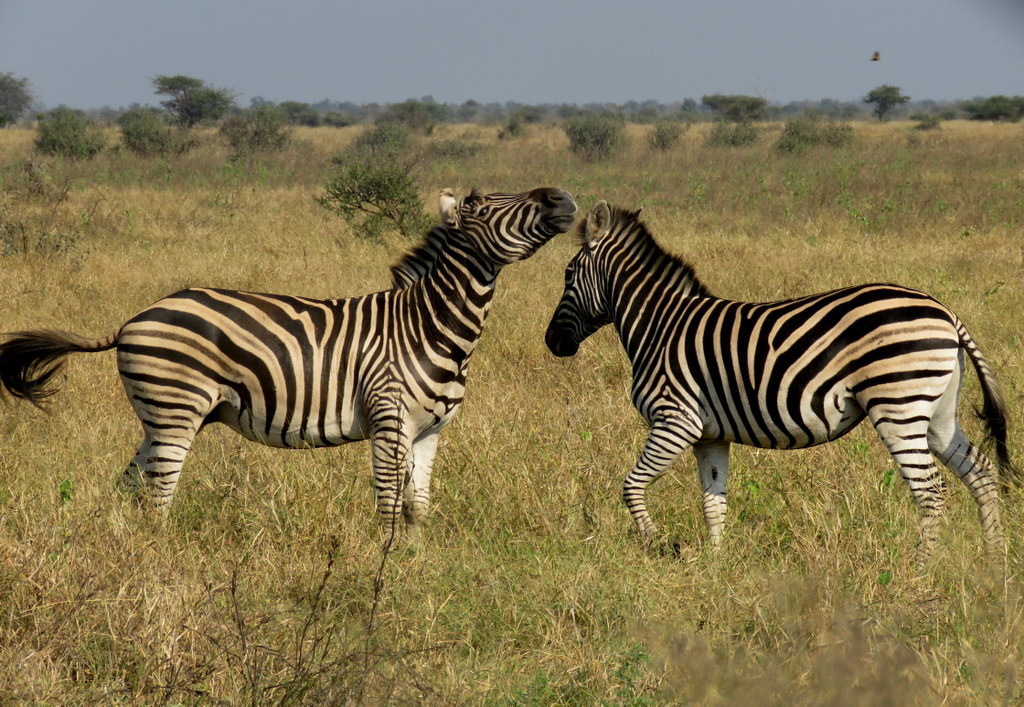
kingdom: Animalia
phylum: Chordata
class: Mammalia
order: Perissodactyla
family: Equidae
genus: Equus
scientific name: Equus quagga
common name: Plains zebra
